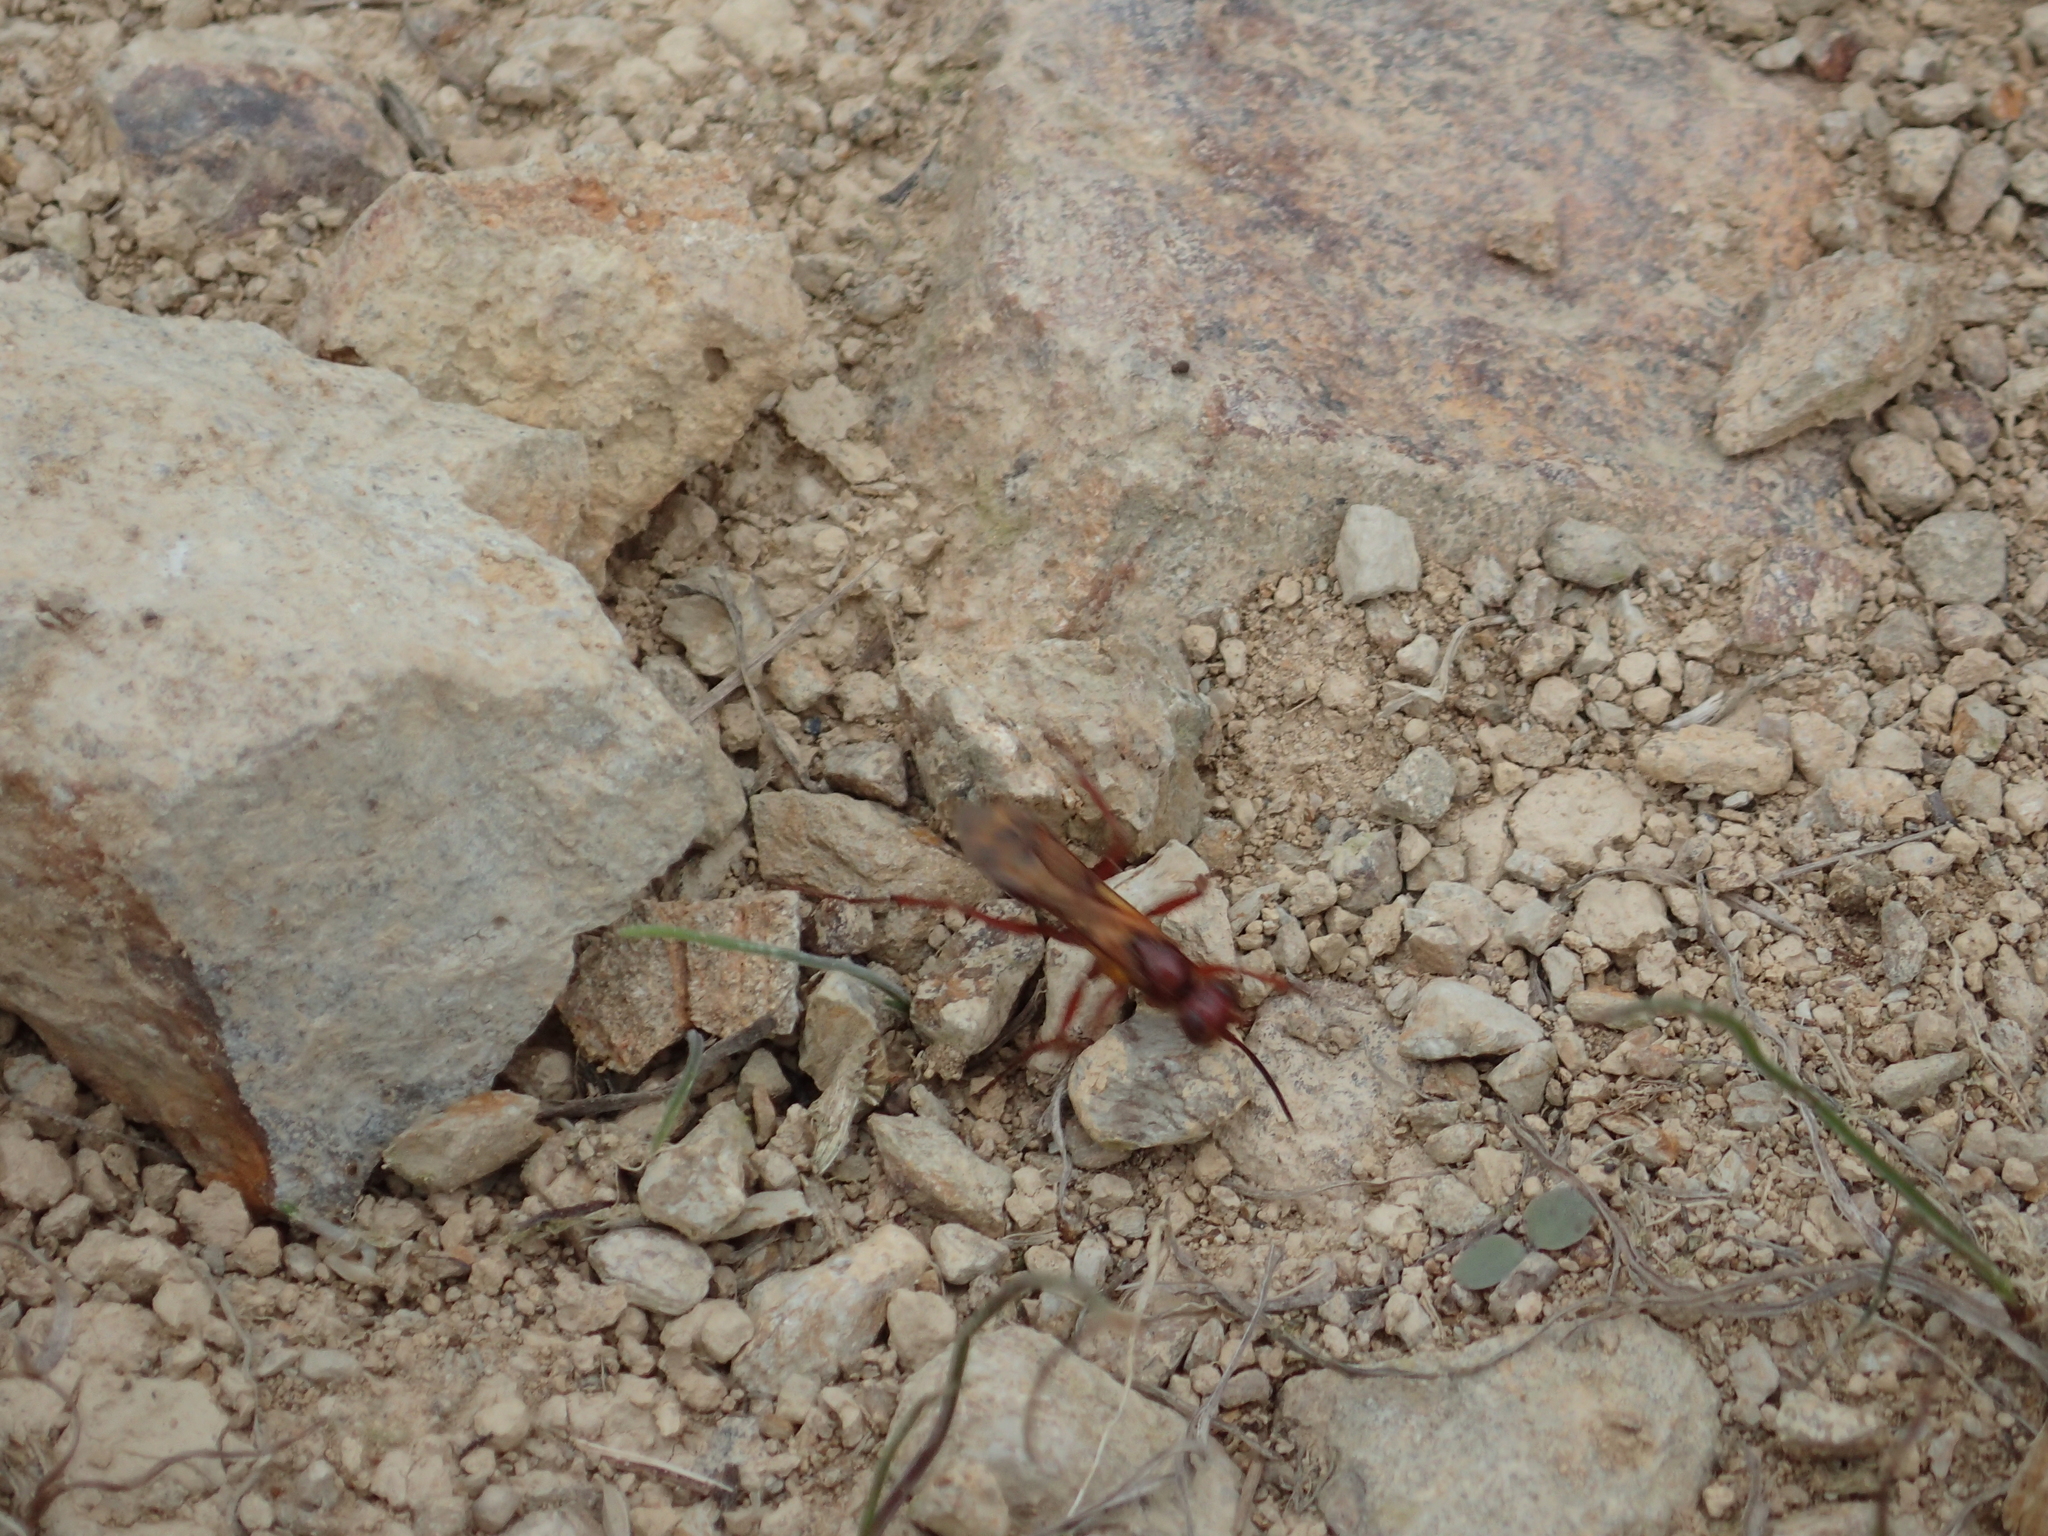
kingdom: Animalia
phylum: Arthropoda
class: Insecta
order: Hymenoptera
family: Pompilidae
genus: Sphictostethus
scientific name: Sphictostethus nitidus
